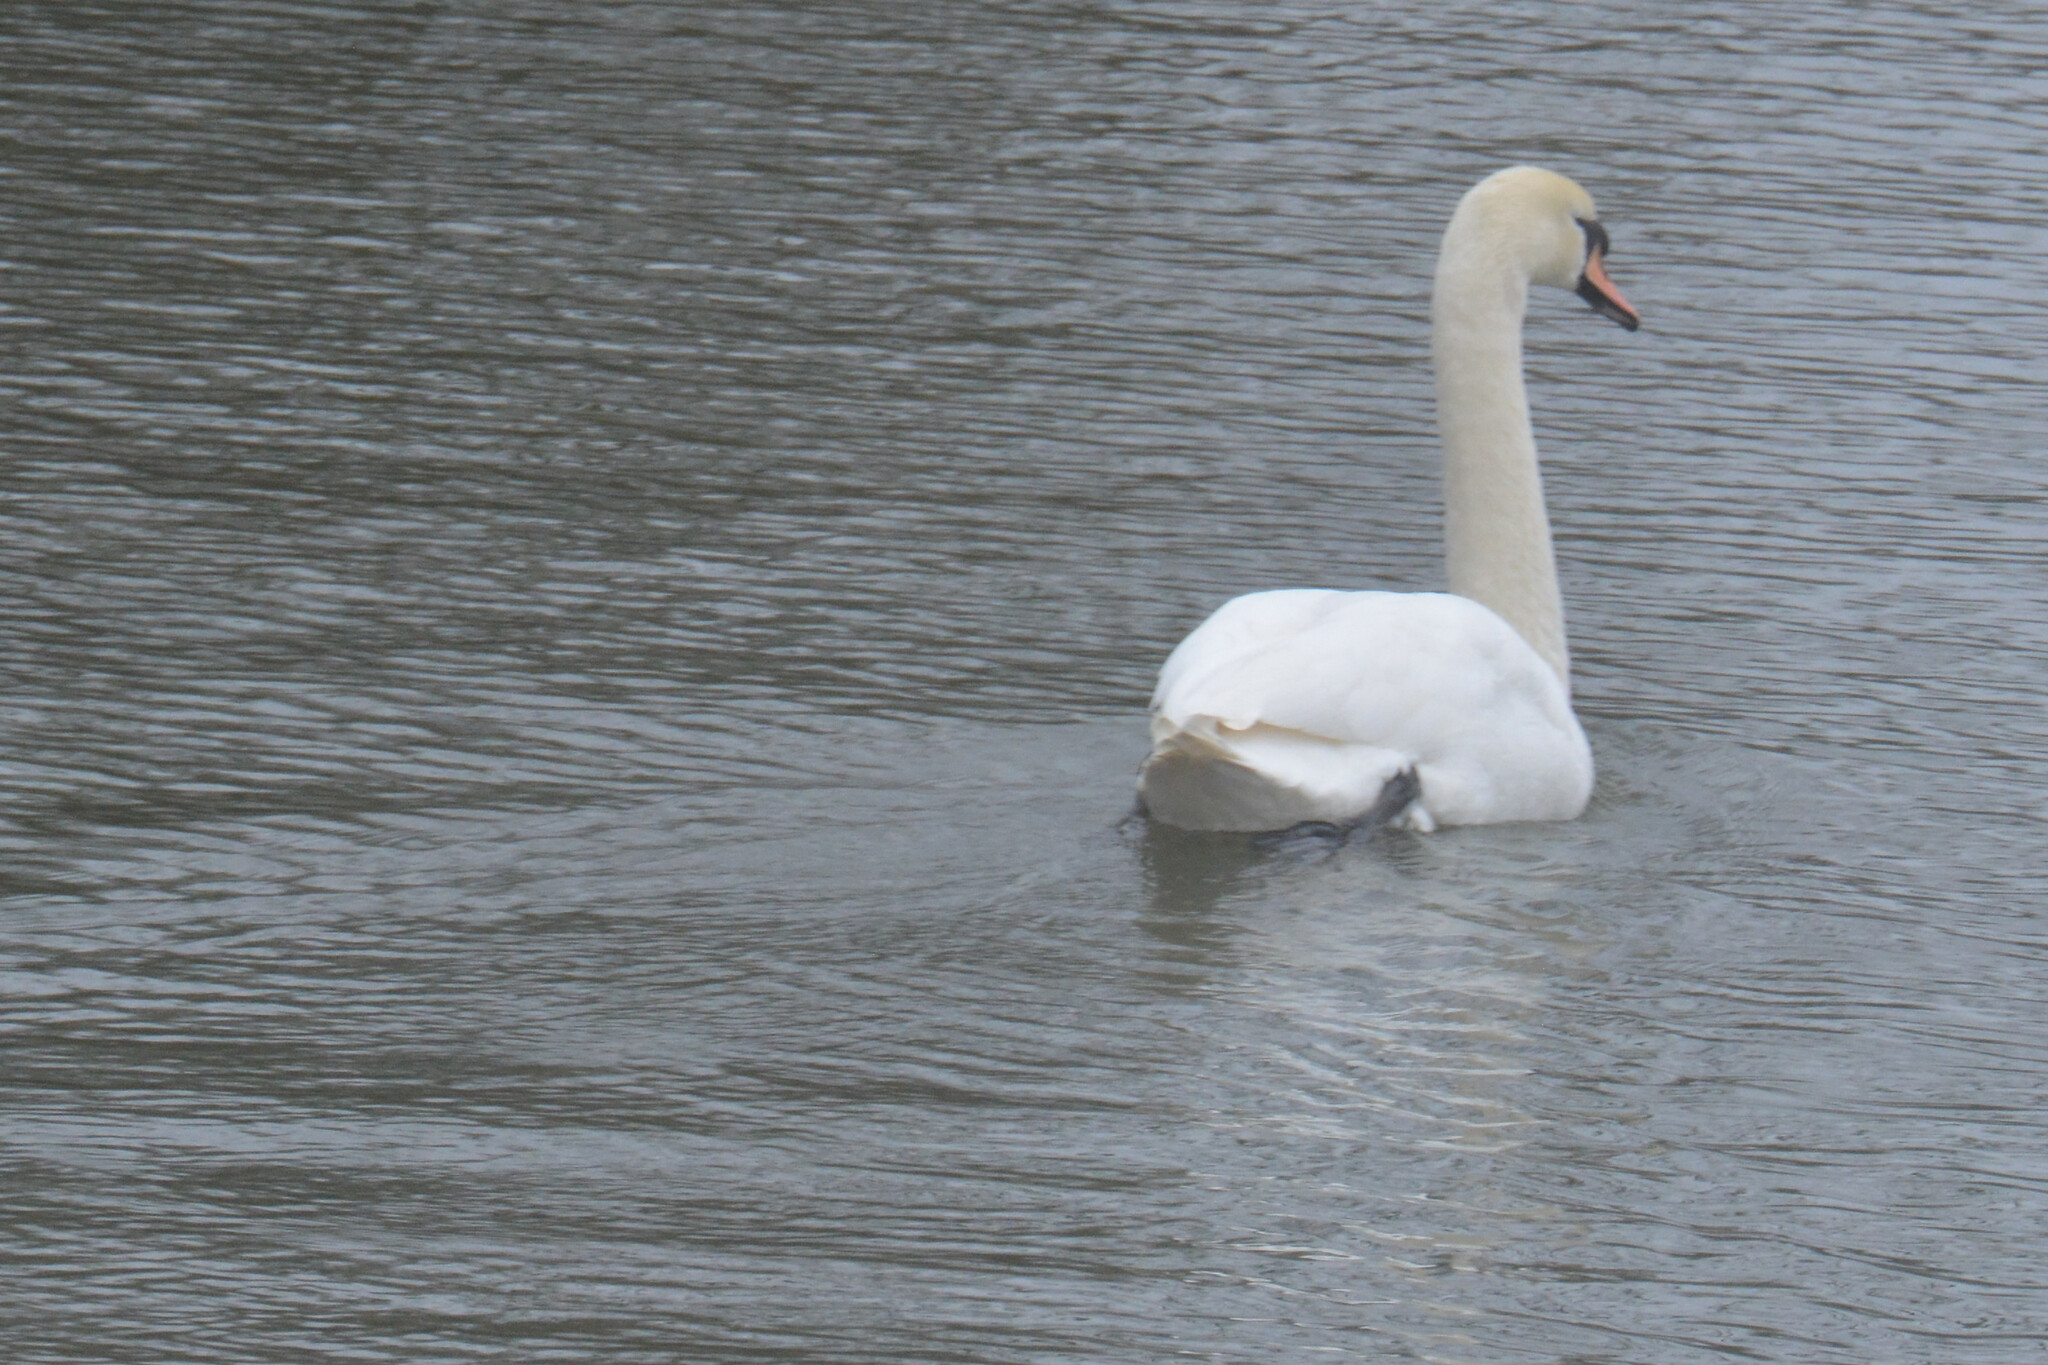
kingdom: Animalia
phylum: Chordata
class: Aves
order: Anseriformes
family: Anatidae
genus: Cygnus
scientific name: Cygnus olor
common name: Mute swan
